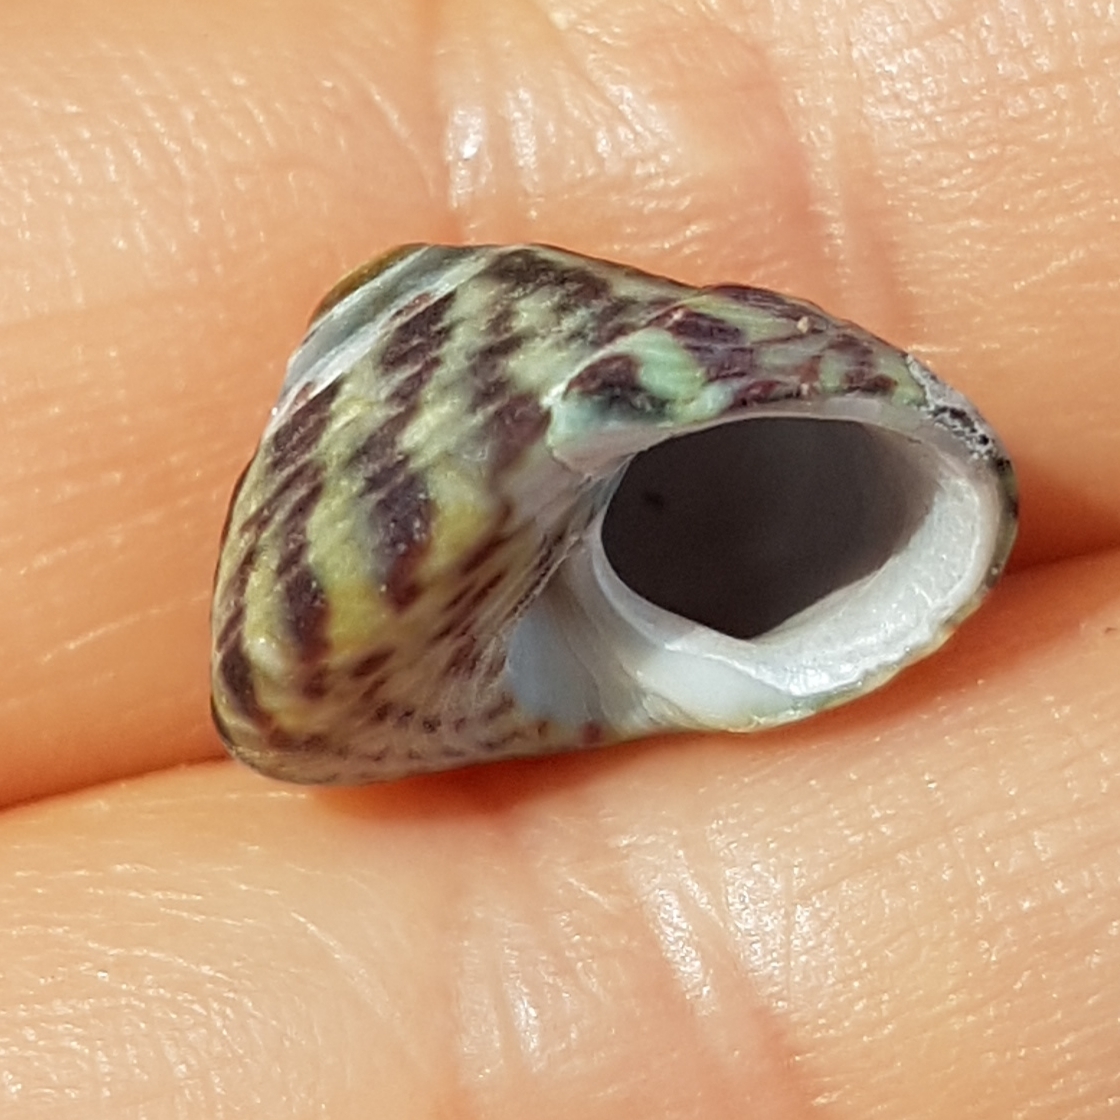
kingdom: Animalia
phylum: Mollusca
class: Gastropoda
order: Trochida
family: Trochidae
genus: Steromphala
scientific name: Steromphala umbilicalis
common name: Flat top shell
